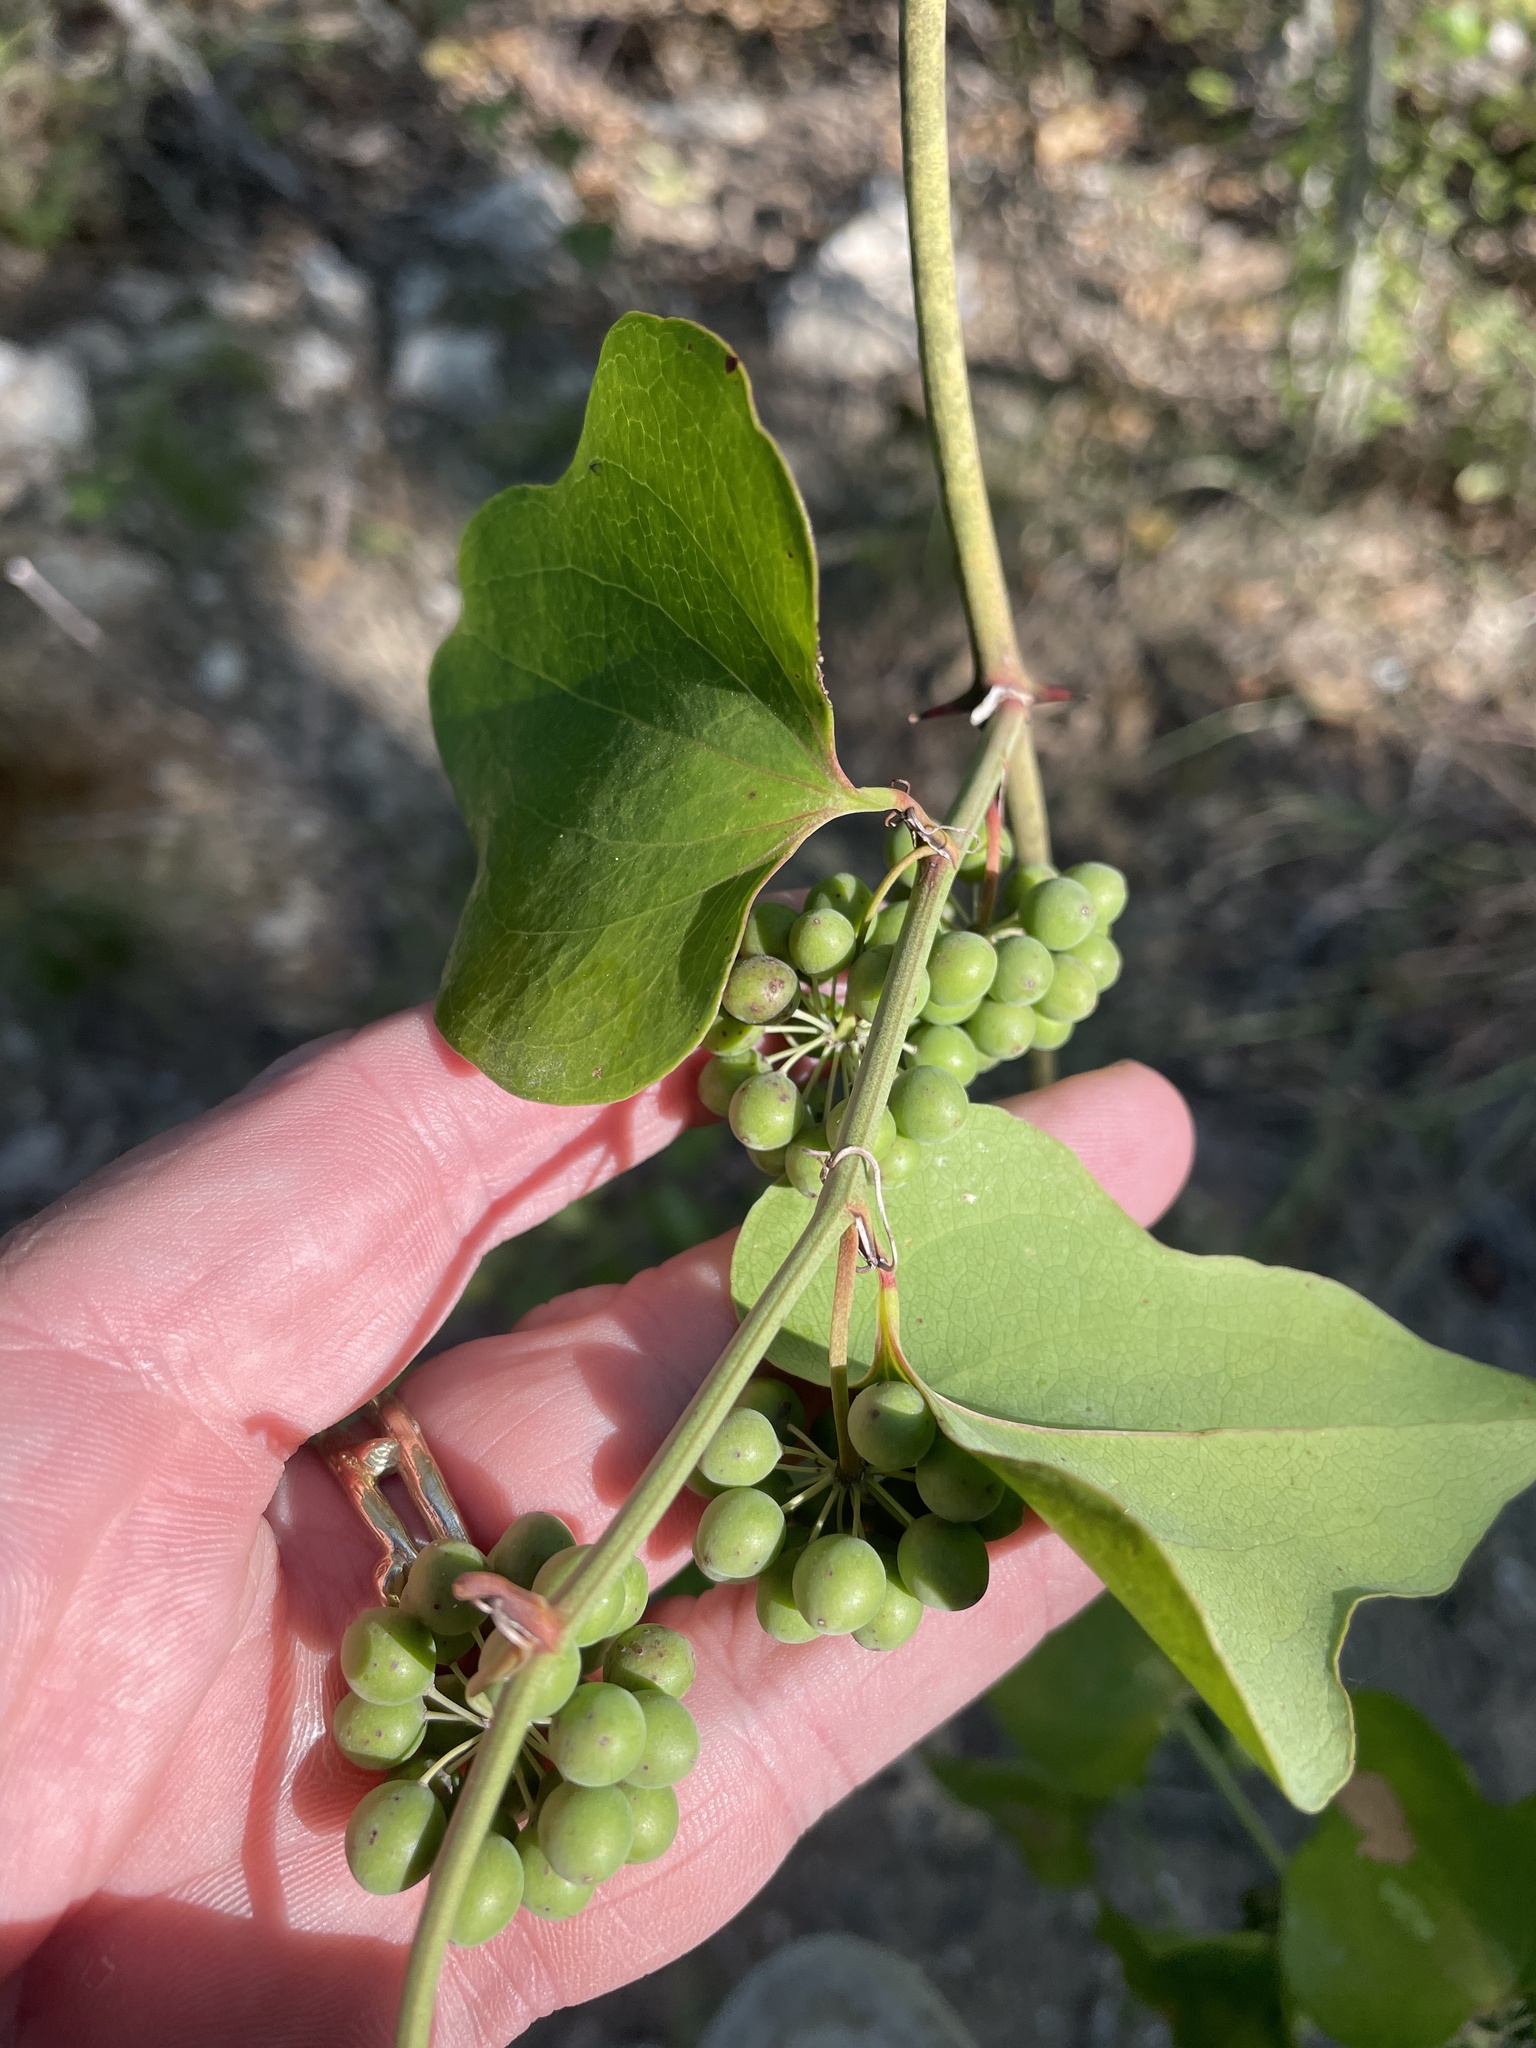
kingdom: Plantae
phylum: Tracheophyta
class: Liliopsida
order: Liliales
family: Smilacaceae
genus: Smilax
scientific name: Smilax bona-nox
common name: Catbrier
